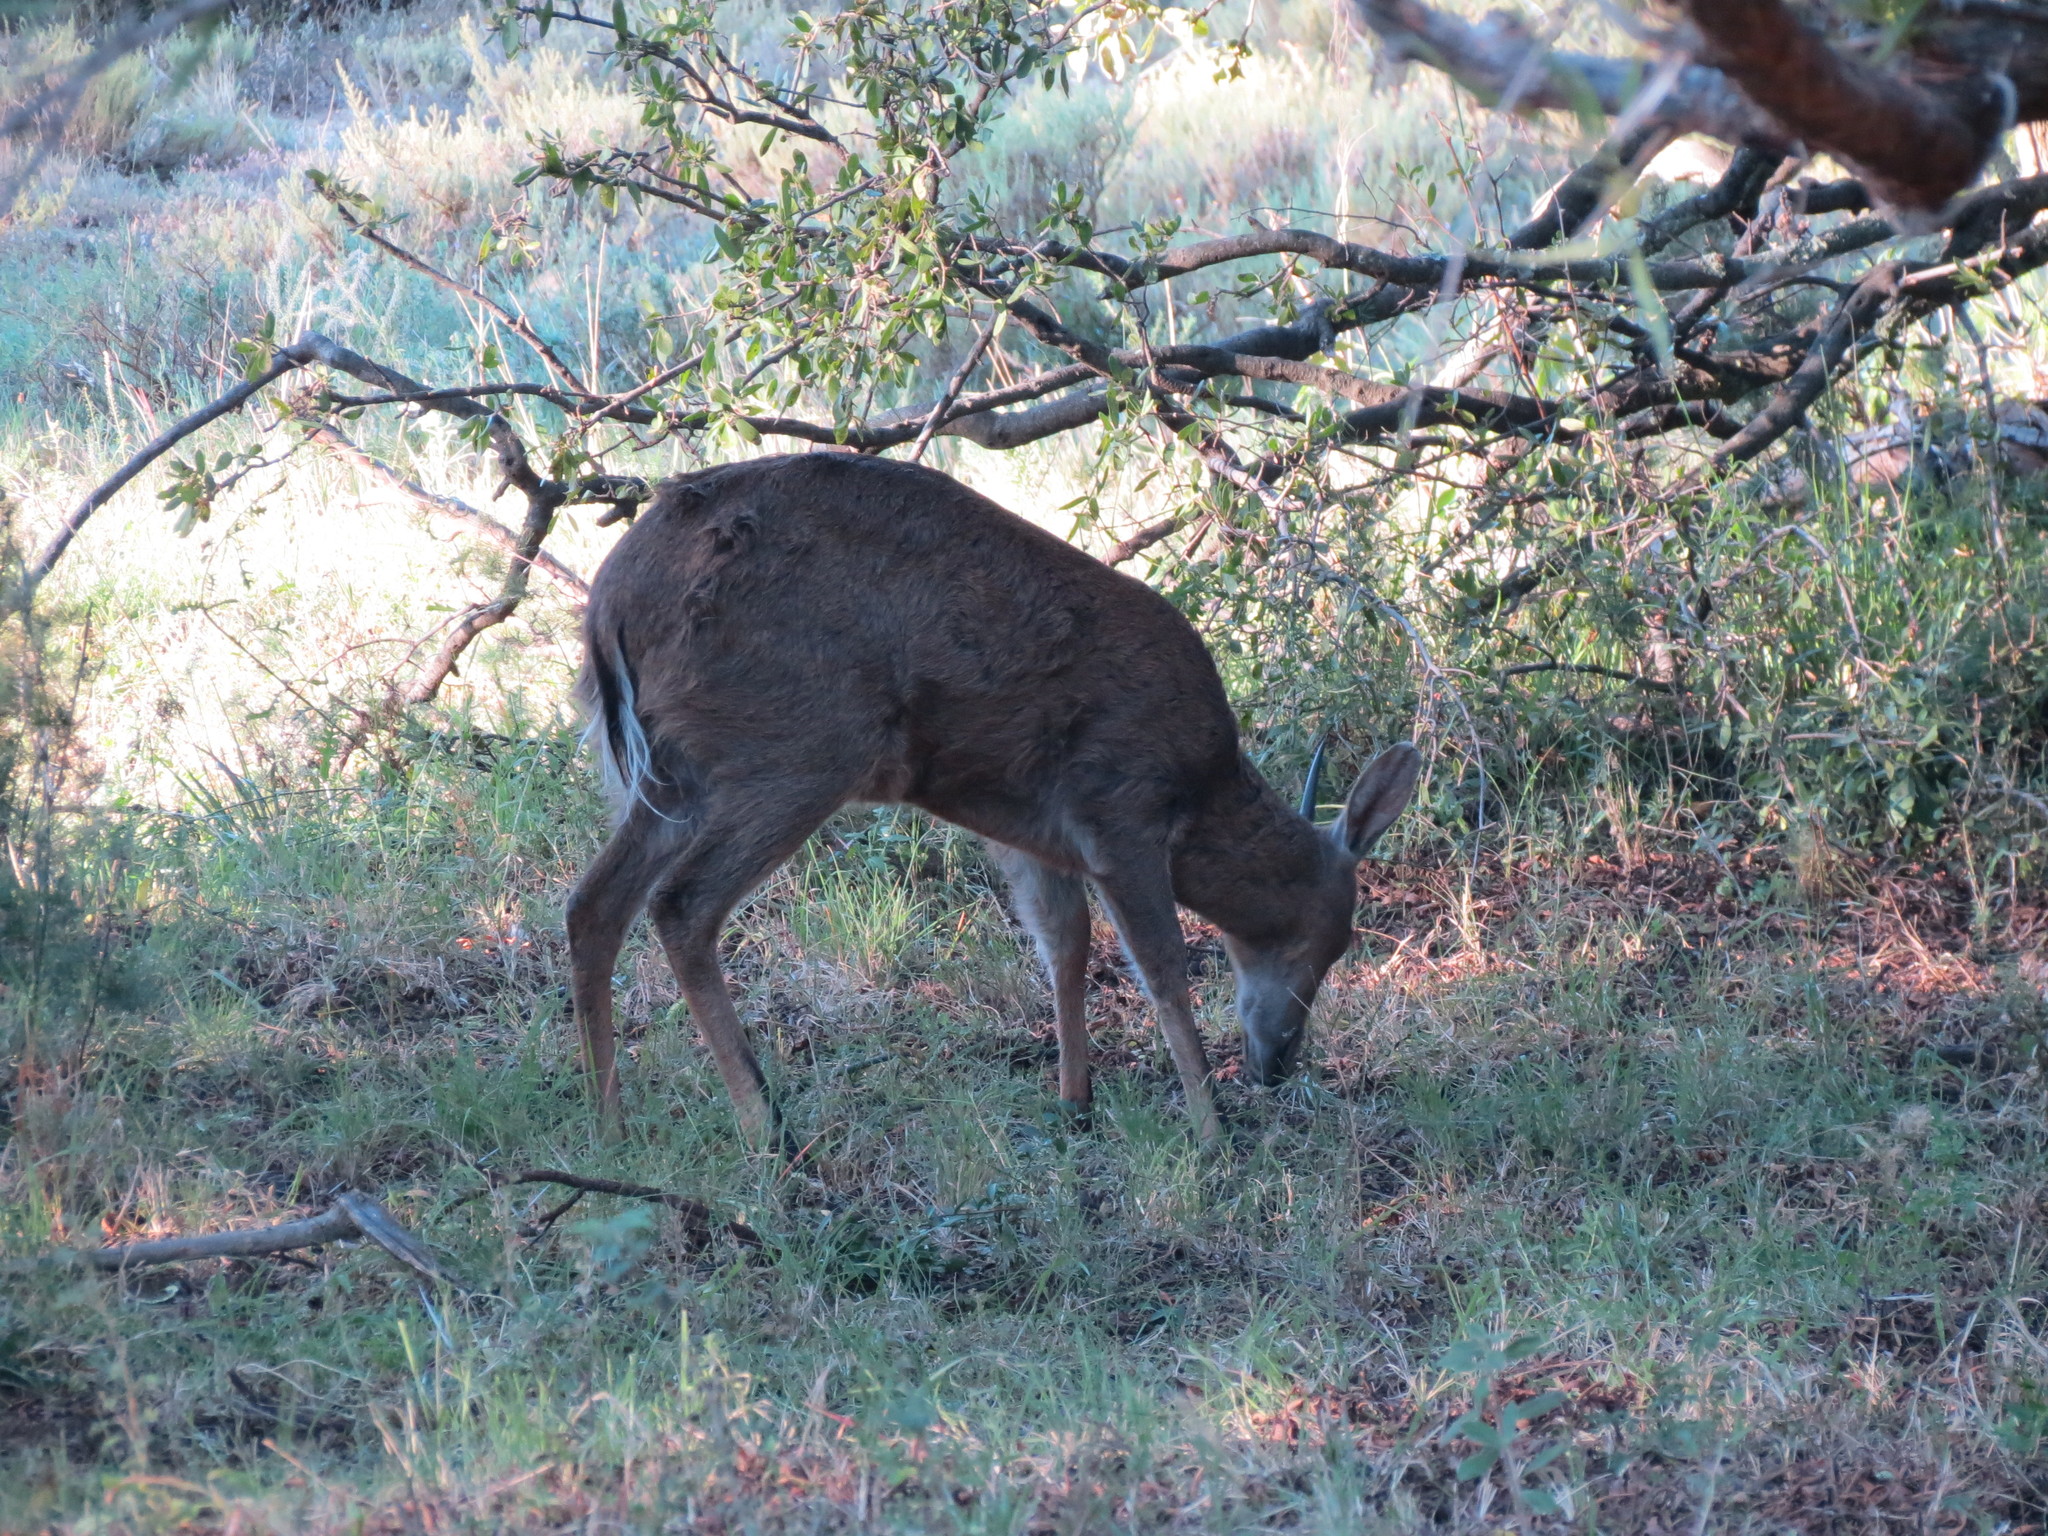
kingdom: Animalia
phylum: Chordata
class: Mammalia
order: Artiodactyla
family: Bovidae
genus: Sylvicapra
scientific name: Sylvicapra grimmia
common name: Bush duiker
